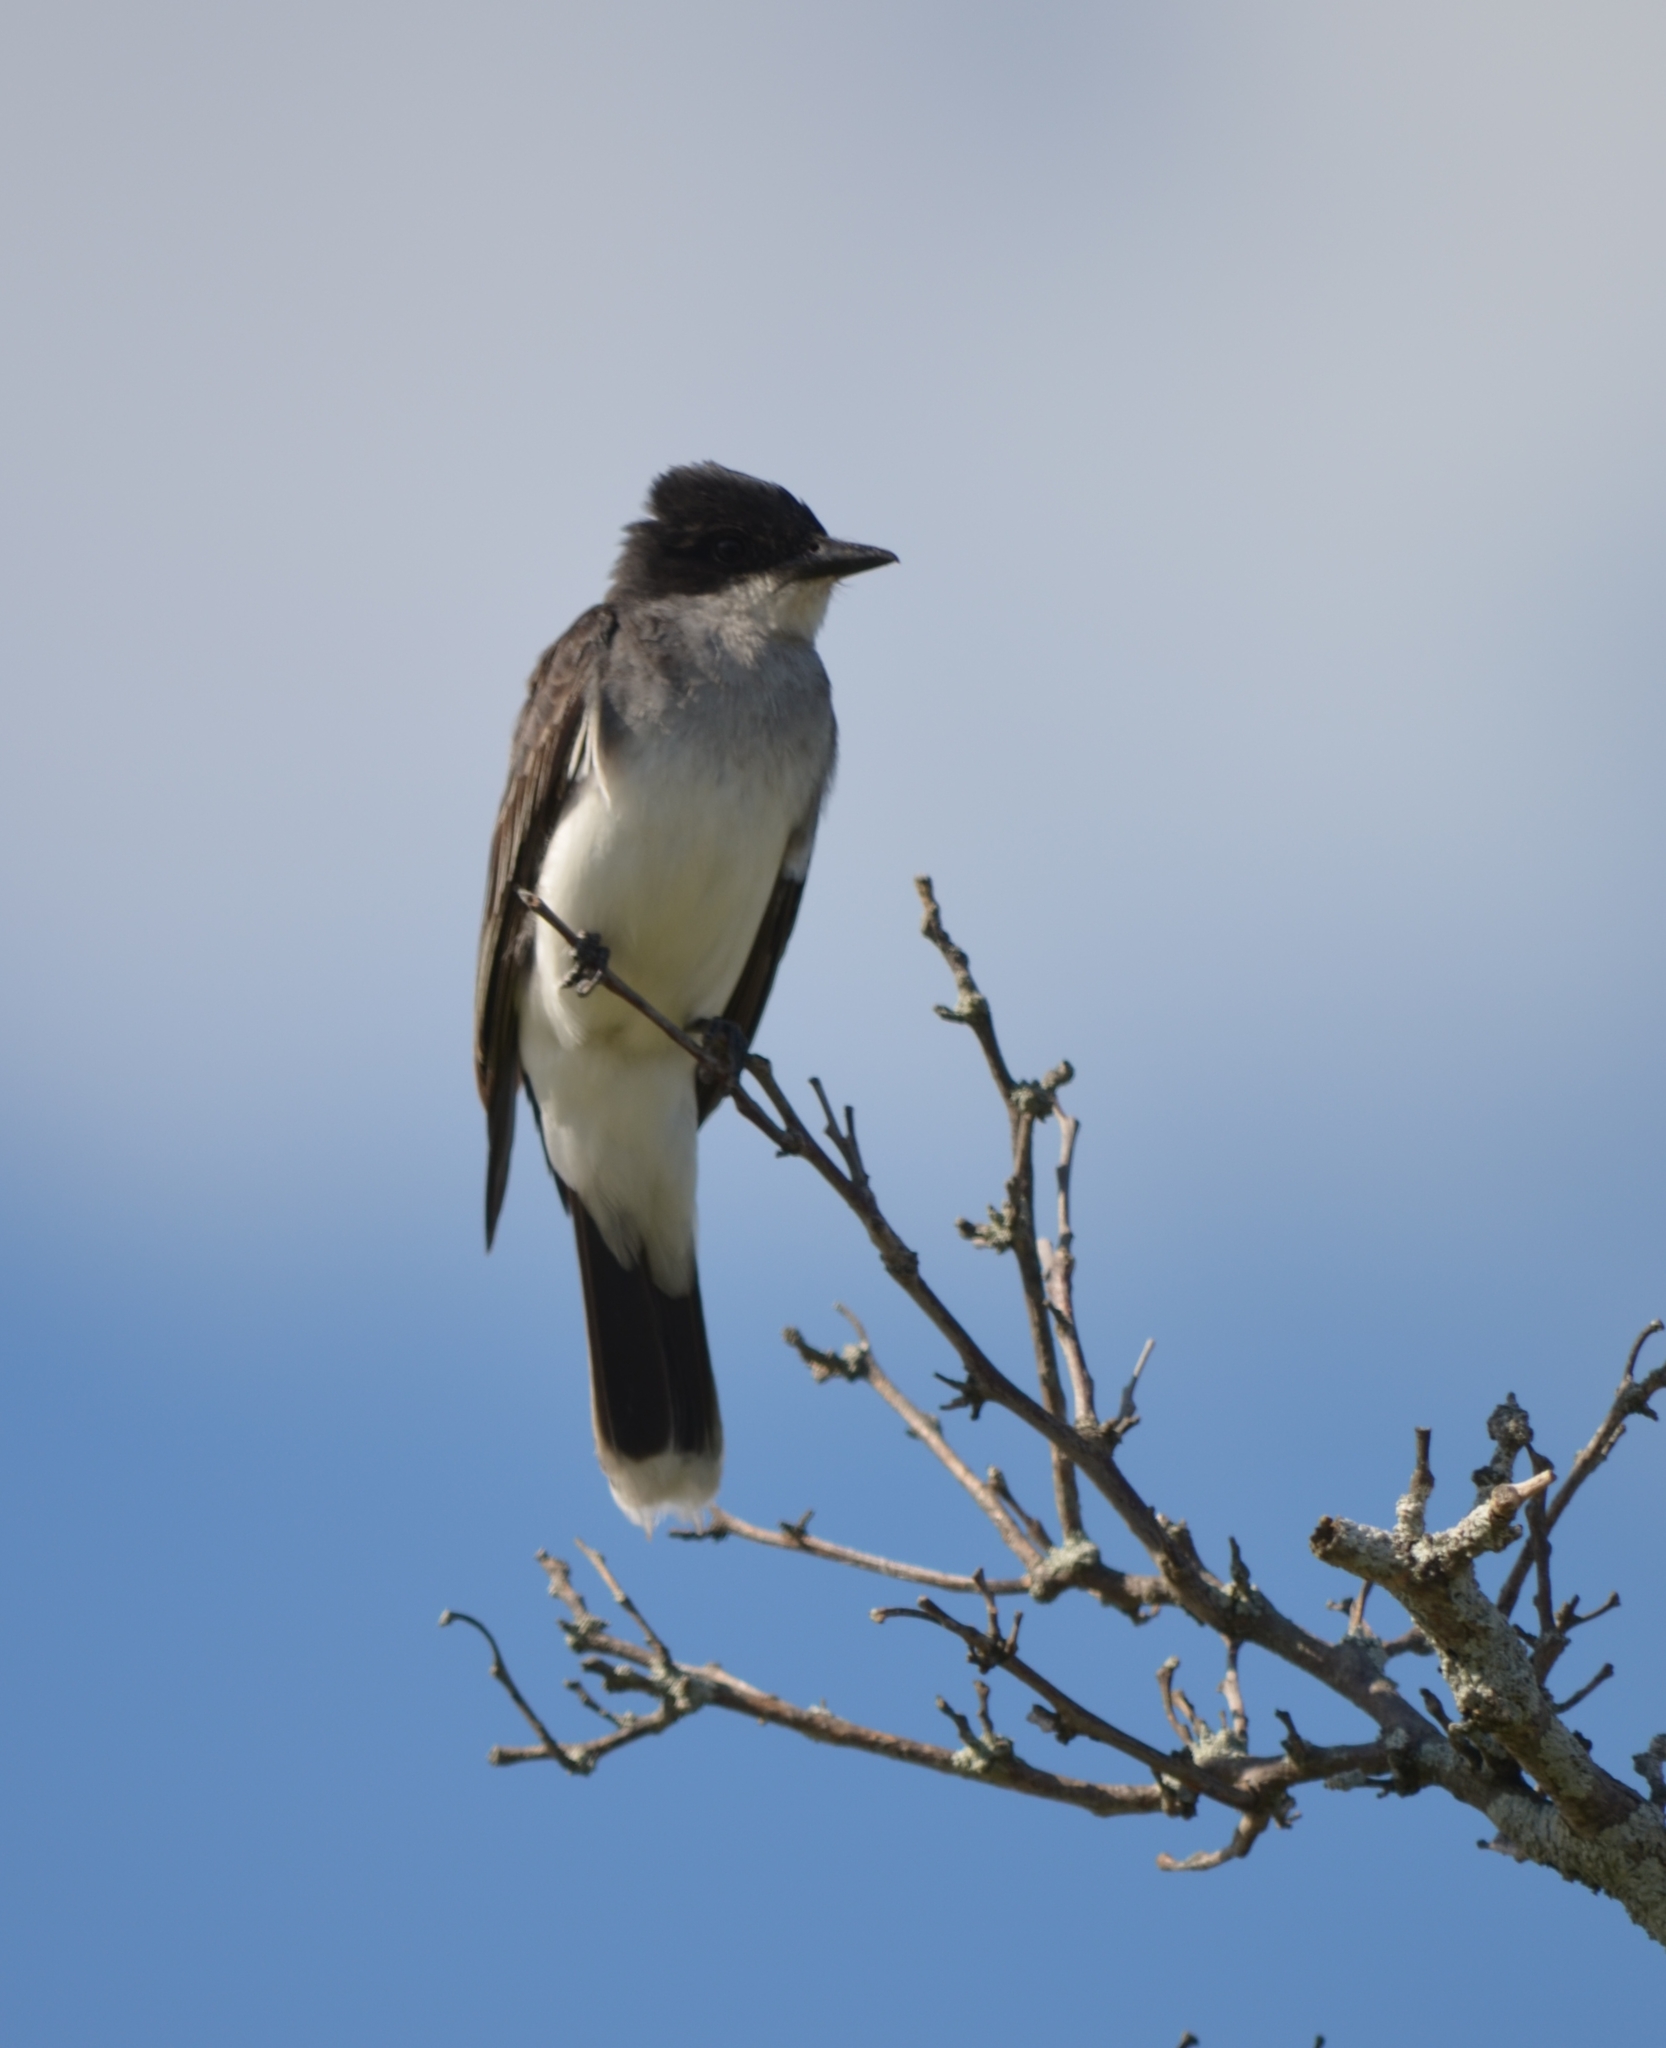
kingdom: Animalia
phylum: Chordata
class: Aves
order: Passeriformes
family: Tyrannidae
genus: Tyrannus
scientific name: Tyrannus tyrannus
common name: Eastern kingbird
